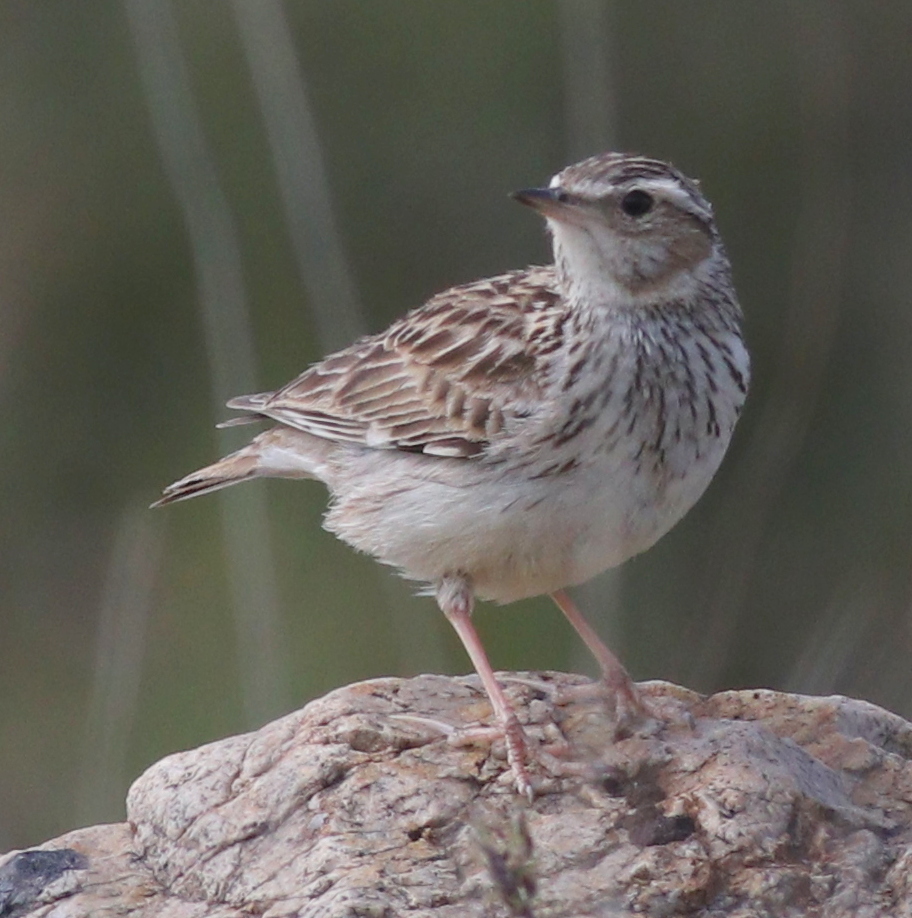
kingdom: Animalia
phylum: Chordata
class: Aves
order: Passeriformes
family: Alaudidae
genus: Lullula
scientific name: Lullula arborea
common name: Woodlark
